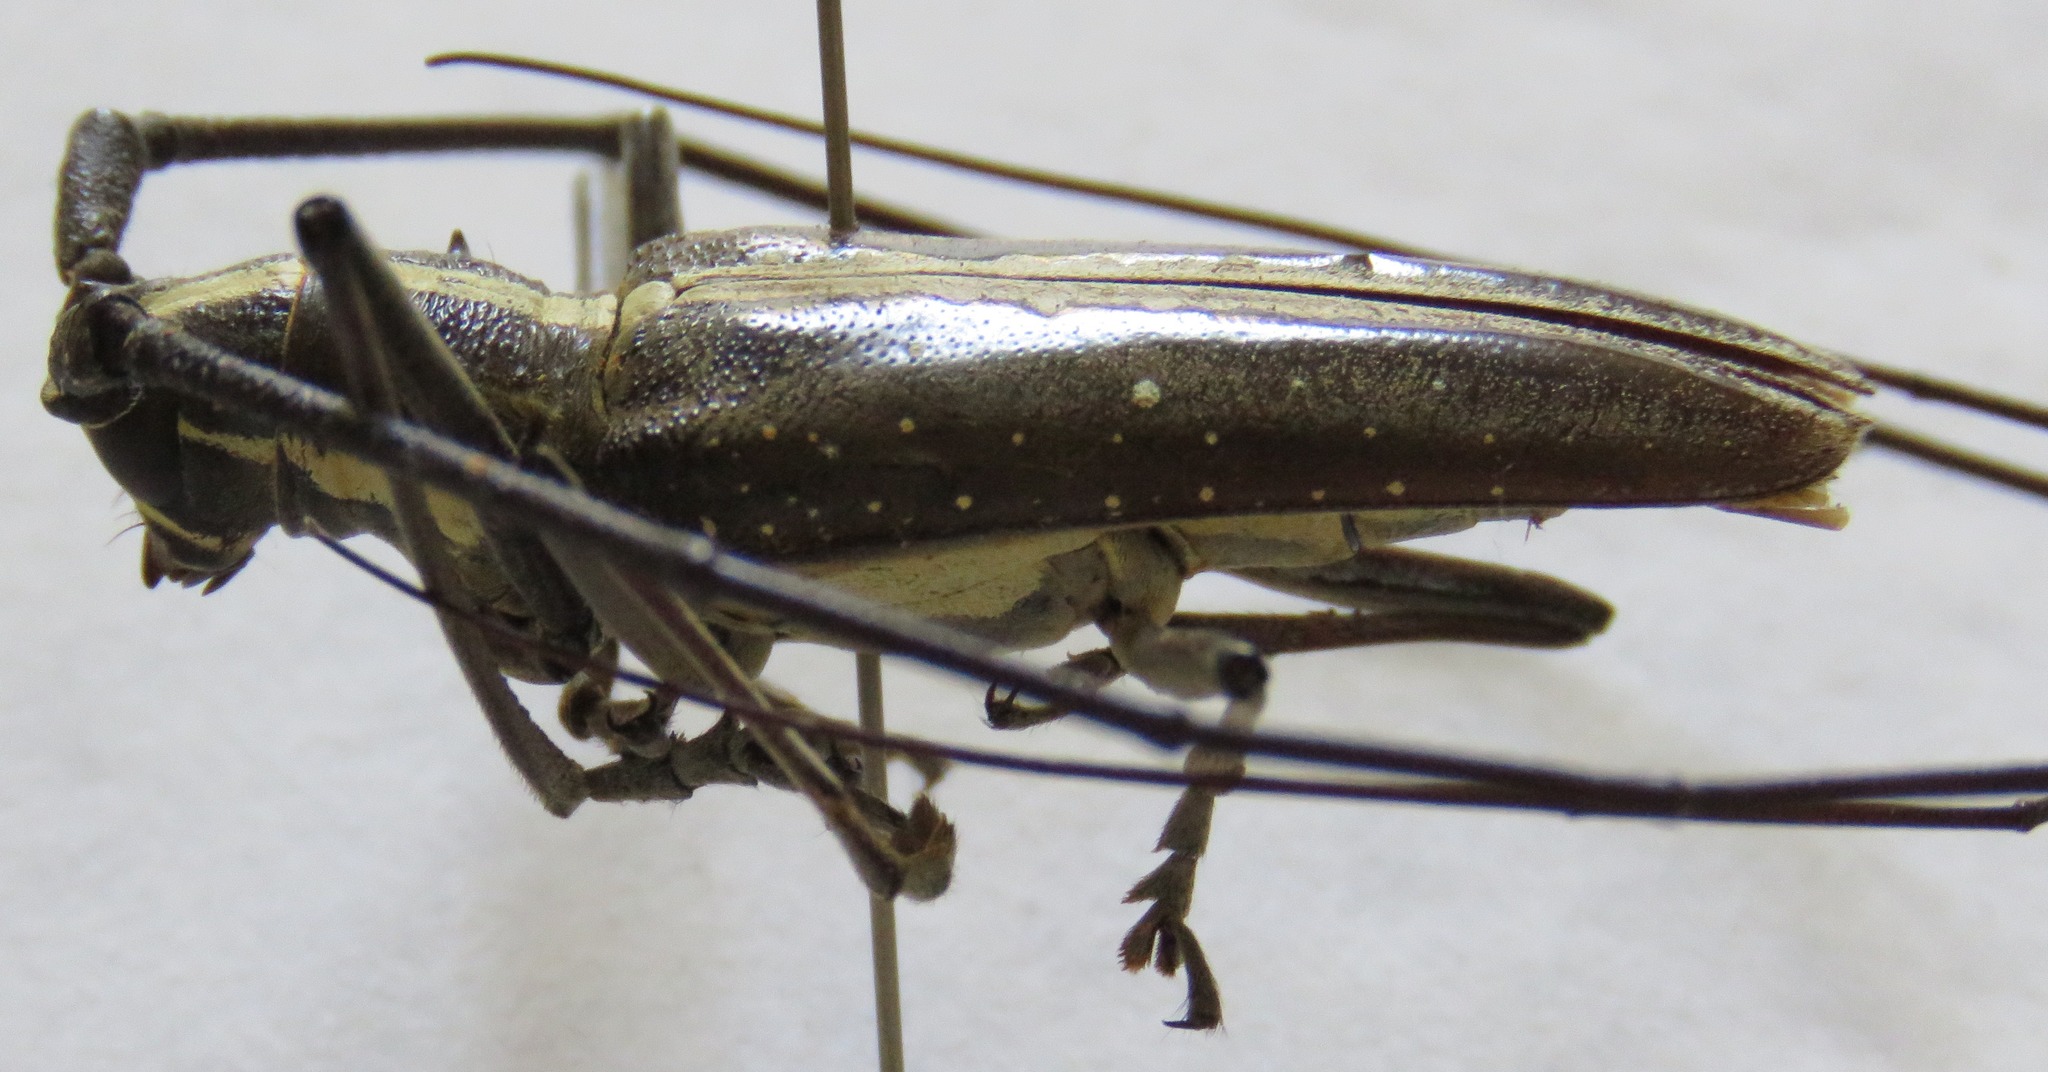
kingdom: Animalia
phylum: Arthropoda
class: Insecta
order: Coleoptera
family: Cerambycidae
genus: Taeniotes
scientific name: Taeniotes scalatus
